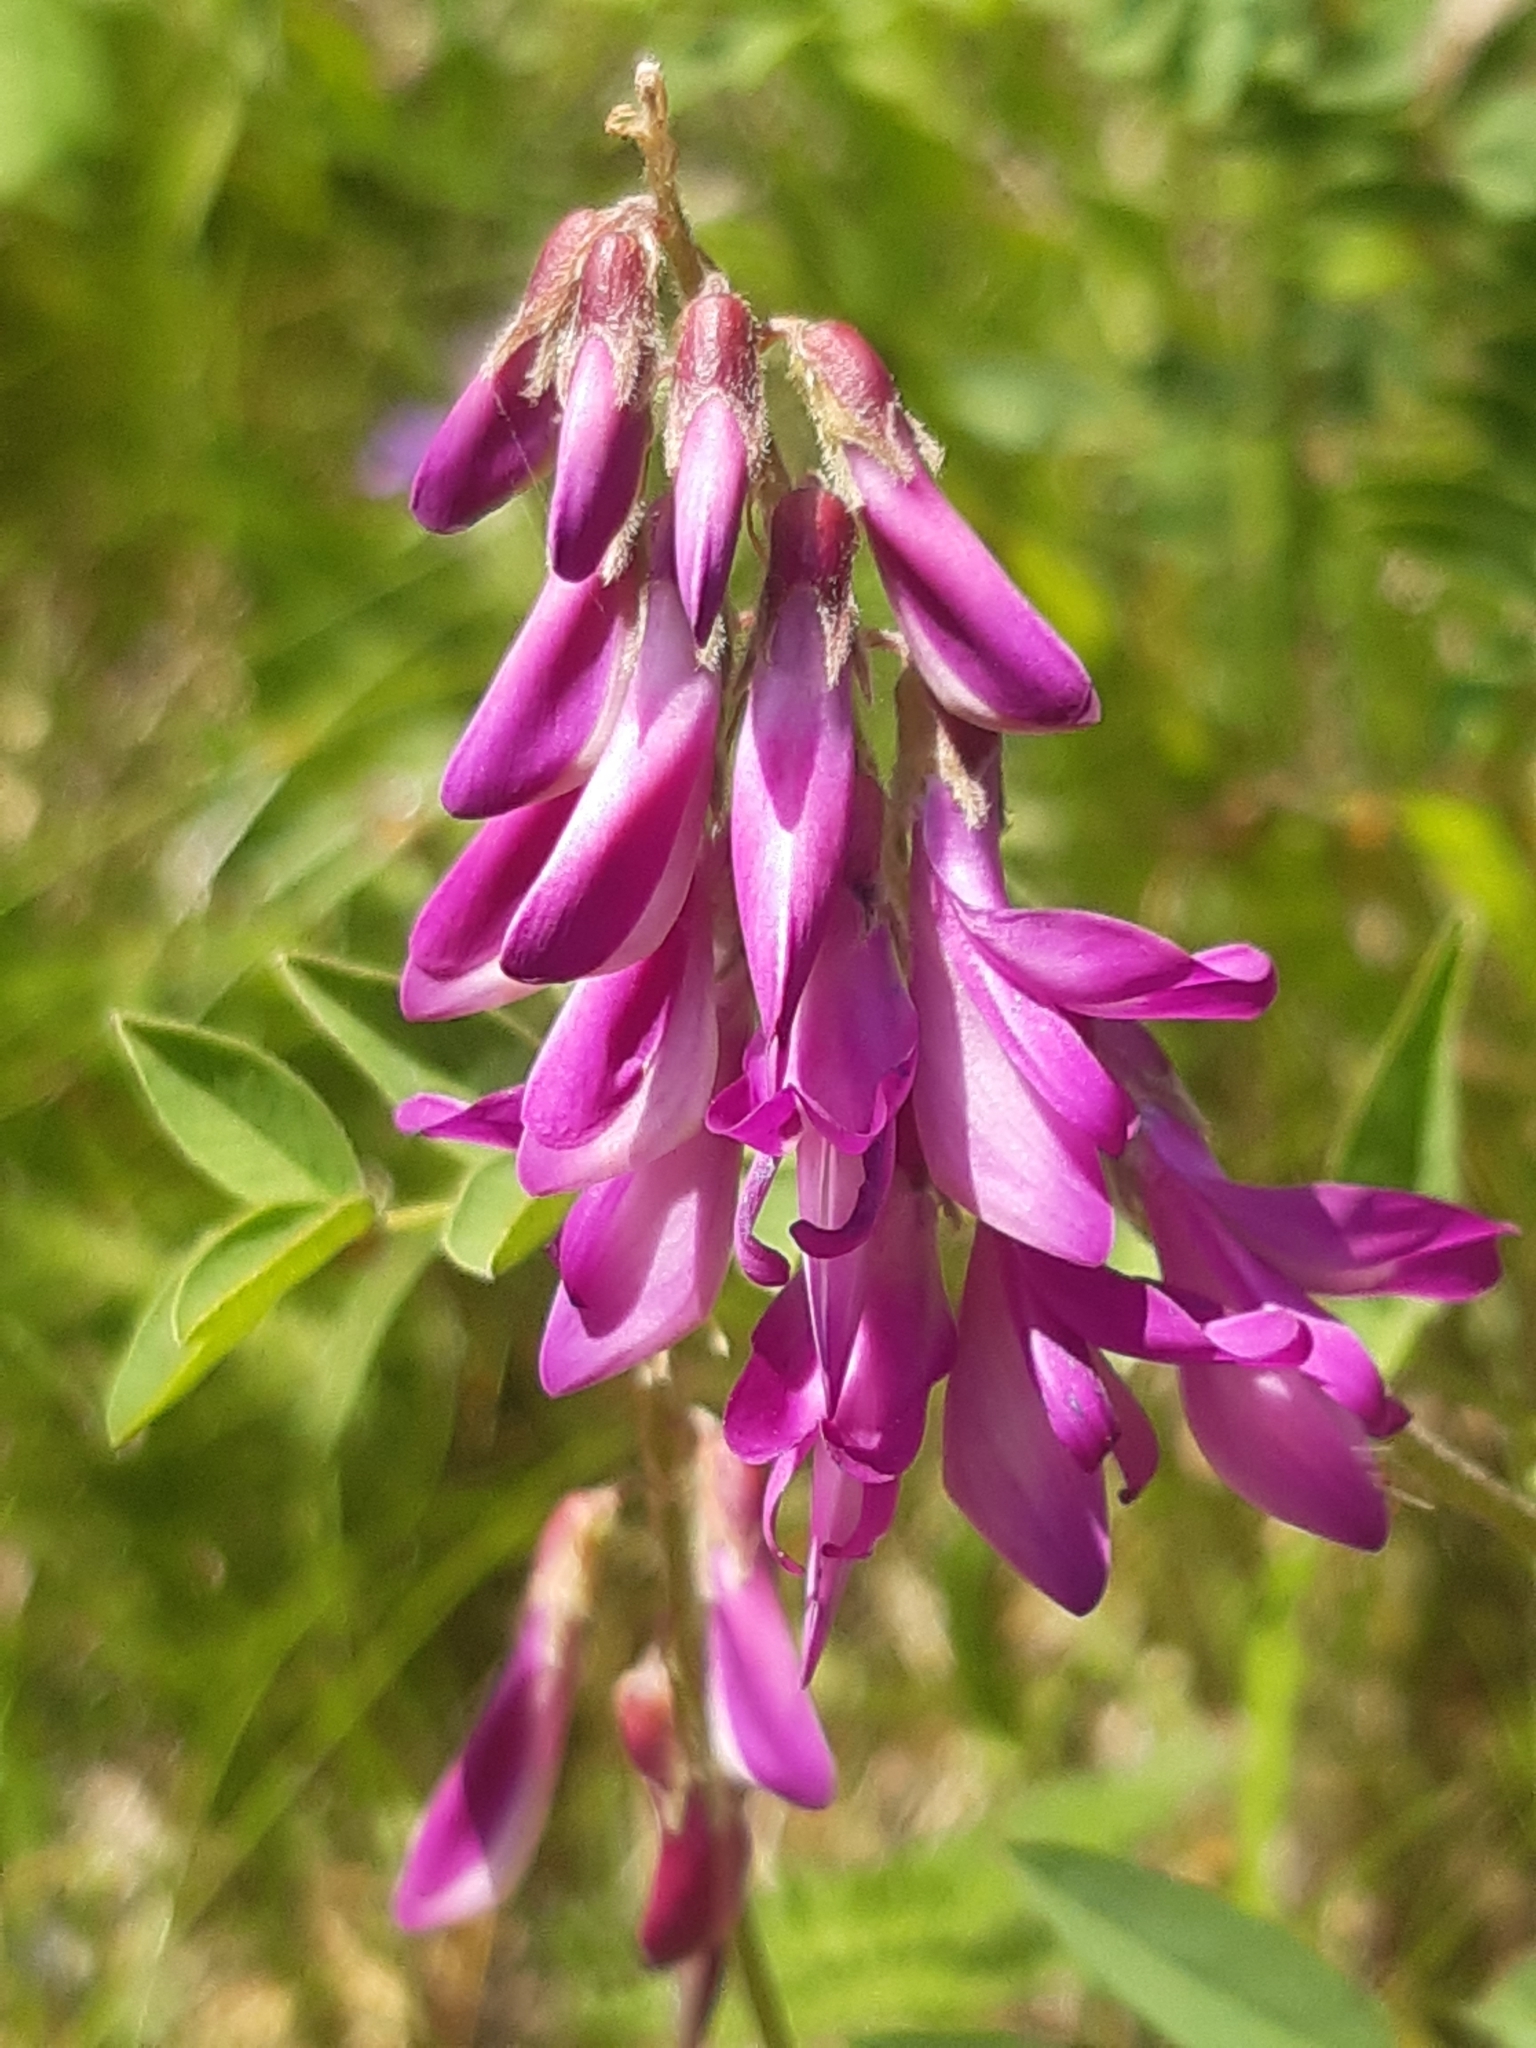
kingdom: Plantae
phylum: Tracheophyta
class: Magnoliopsida
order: Fabales
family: Fabaceae
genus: Hedysarum
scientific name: Hedysarum hedysaroides
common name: Alpine french-honeysuckle
